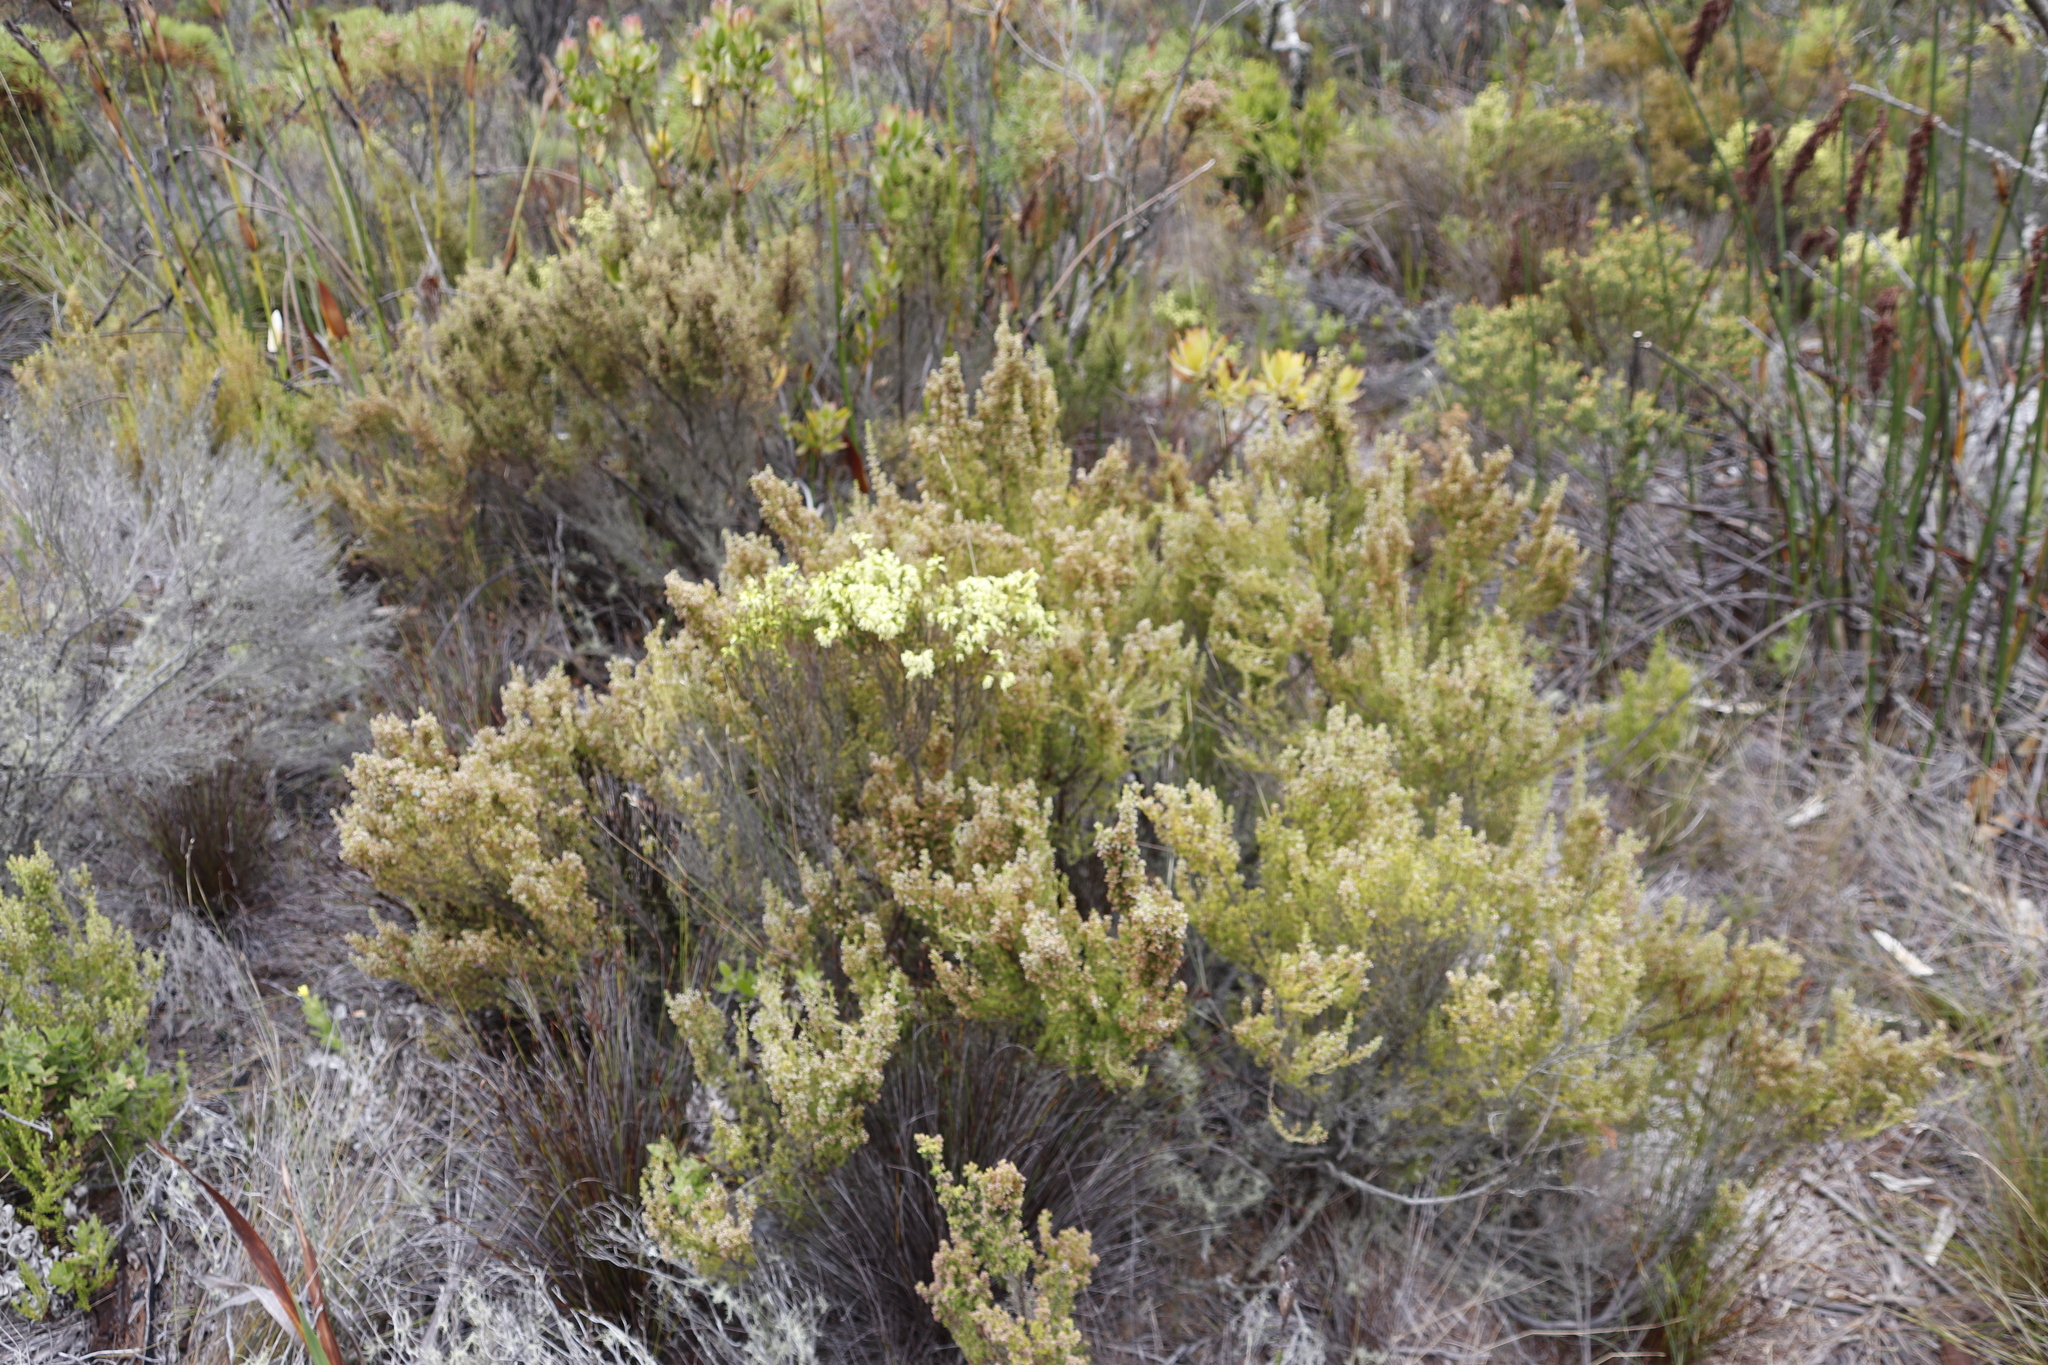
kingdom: Plantae
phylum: Tracheophyta
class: Magnoliopsida
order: Ericales
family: Ericaceae
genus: Erica
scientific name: Erica lutea
